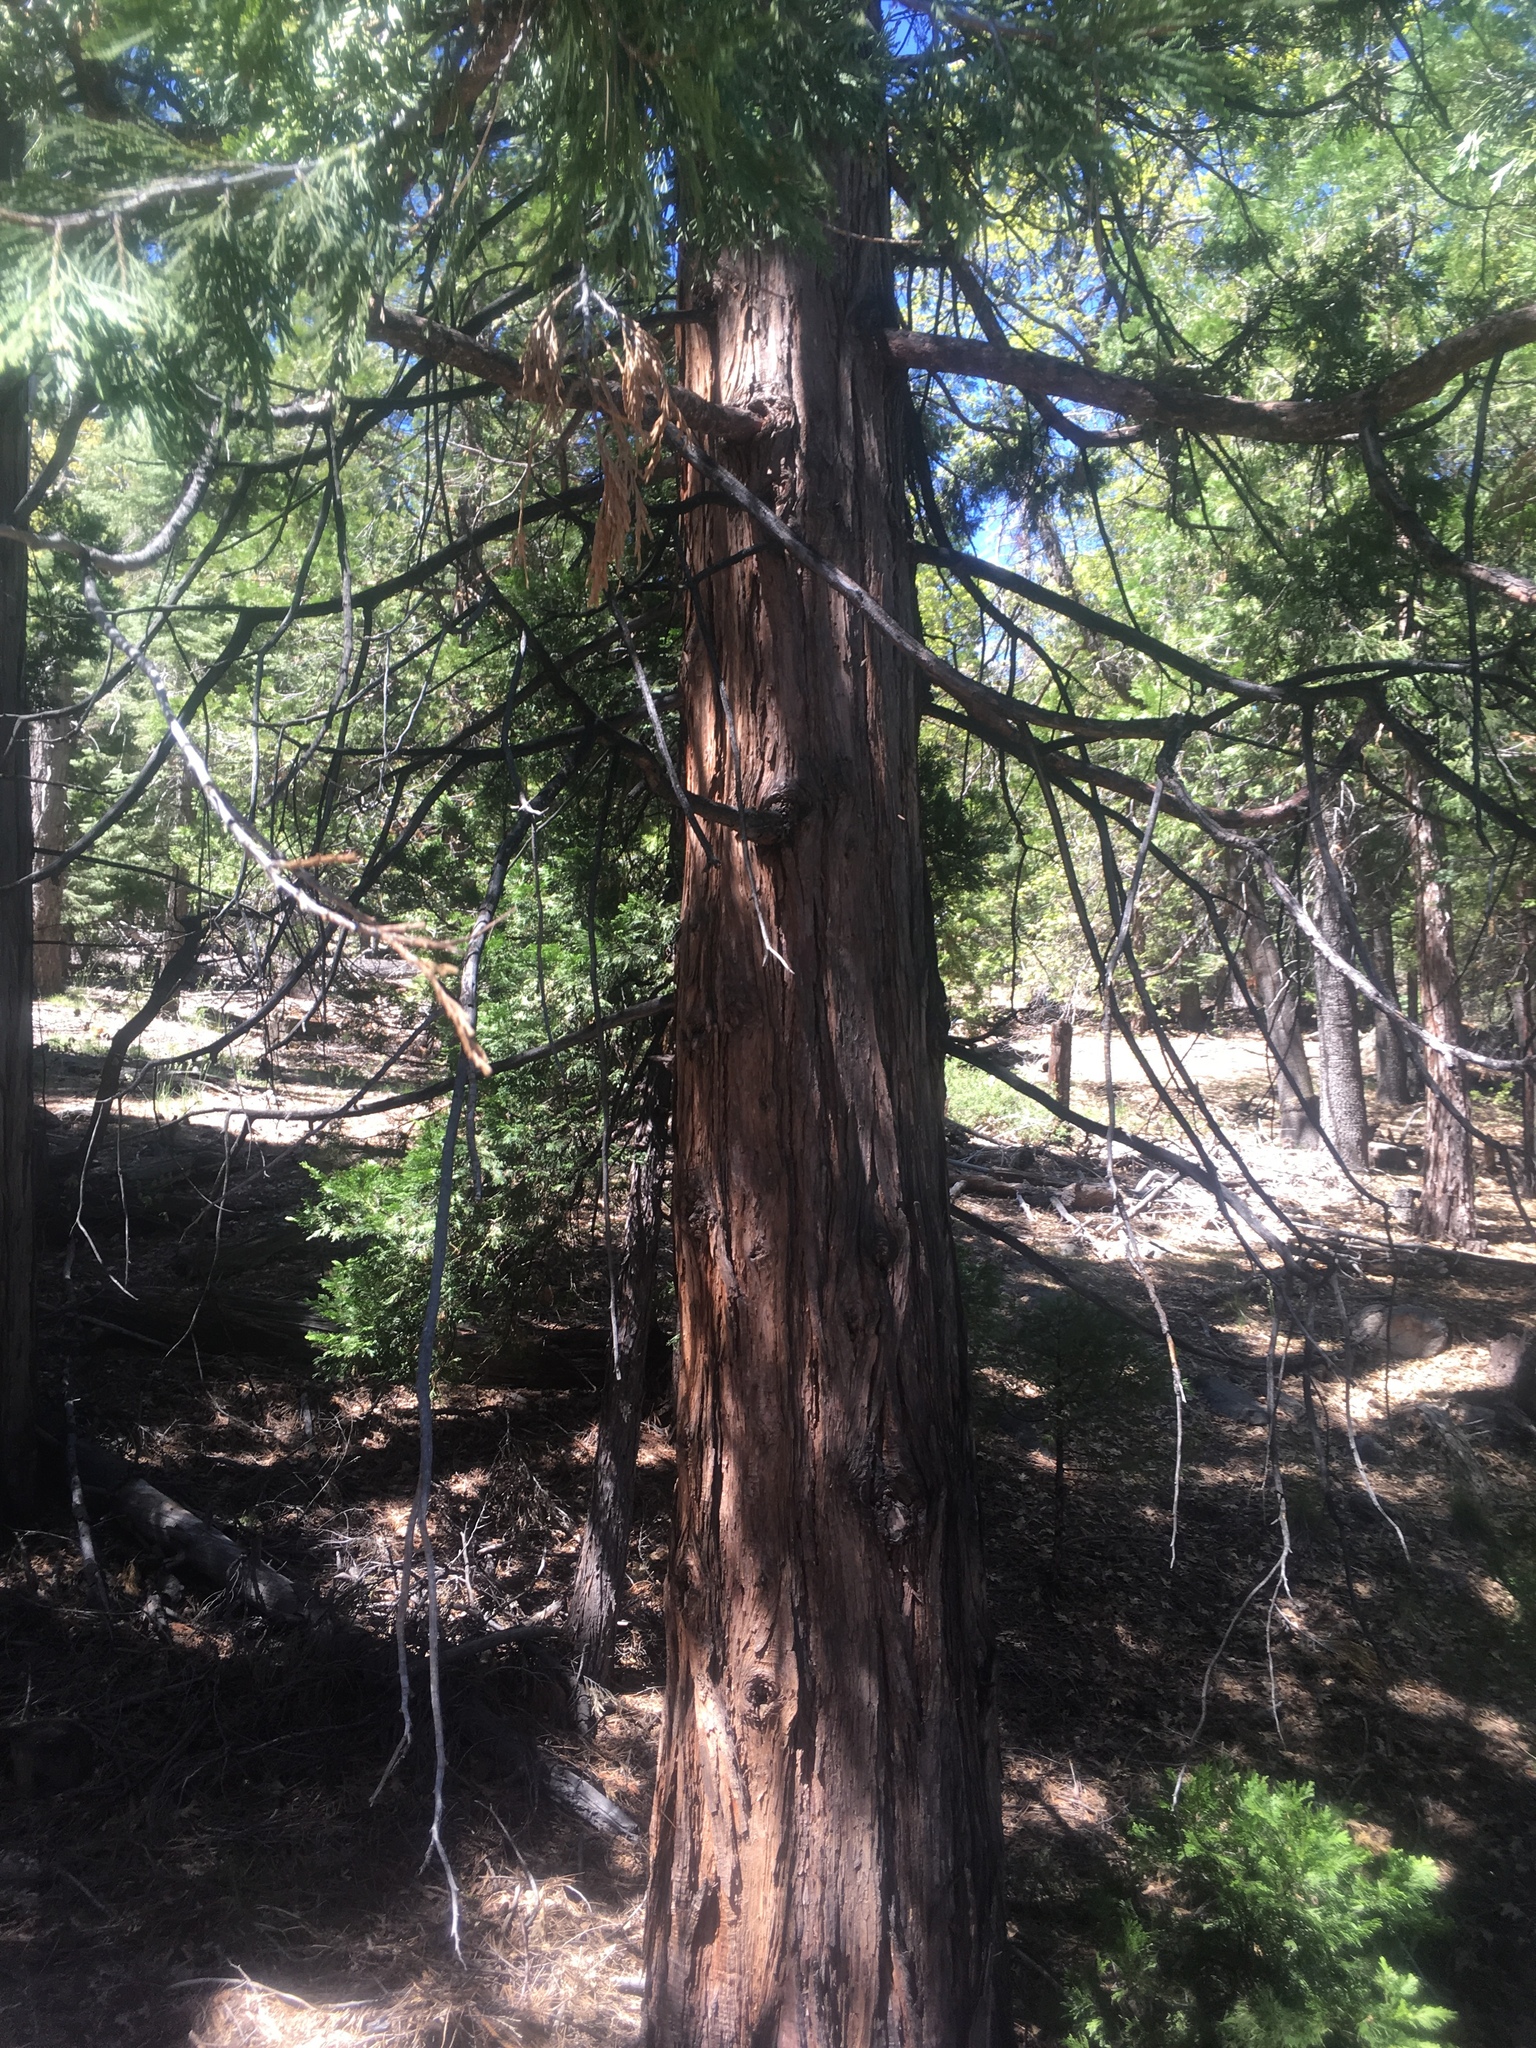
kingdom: Plantae
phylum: Tracheophyta
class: Pinopsida
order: Pinales
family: Cupressaceae
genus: Calocedrus
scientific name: Calocedrus decurrens
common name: Californian incense-cedar
